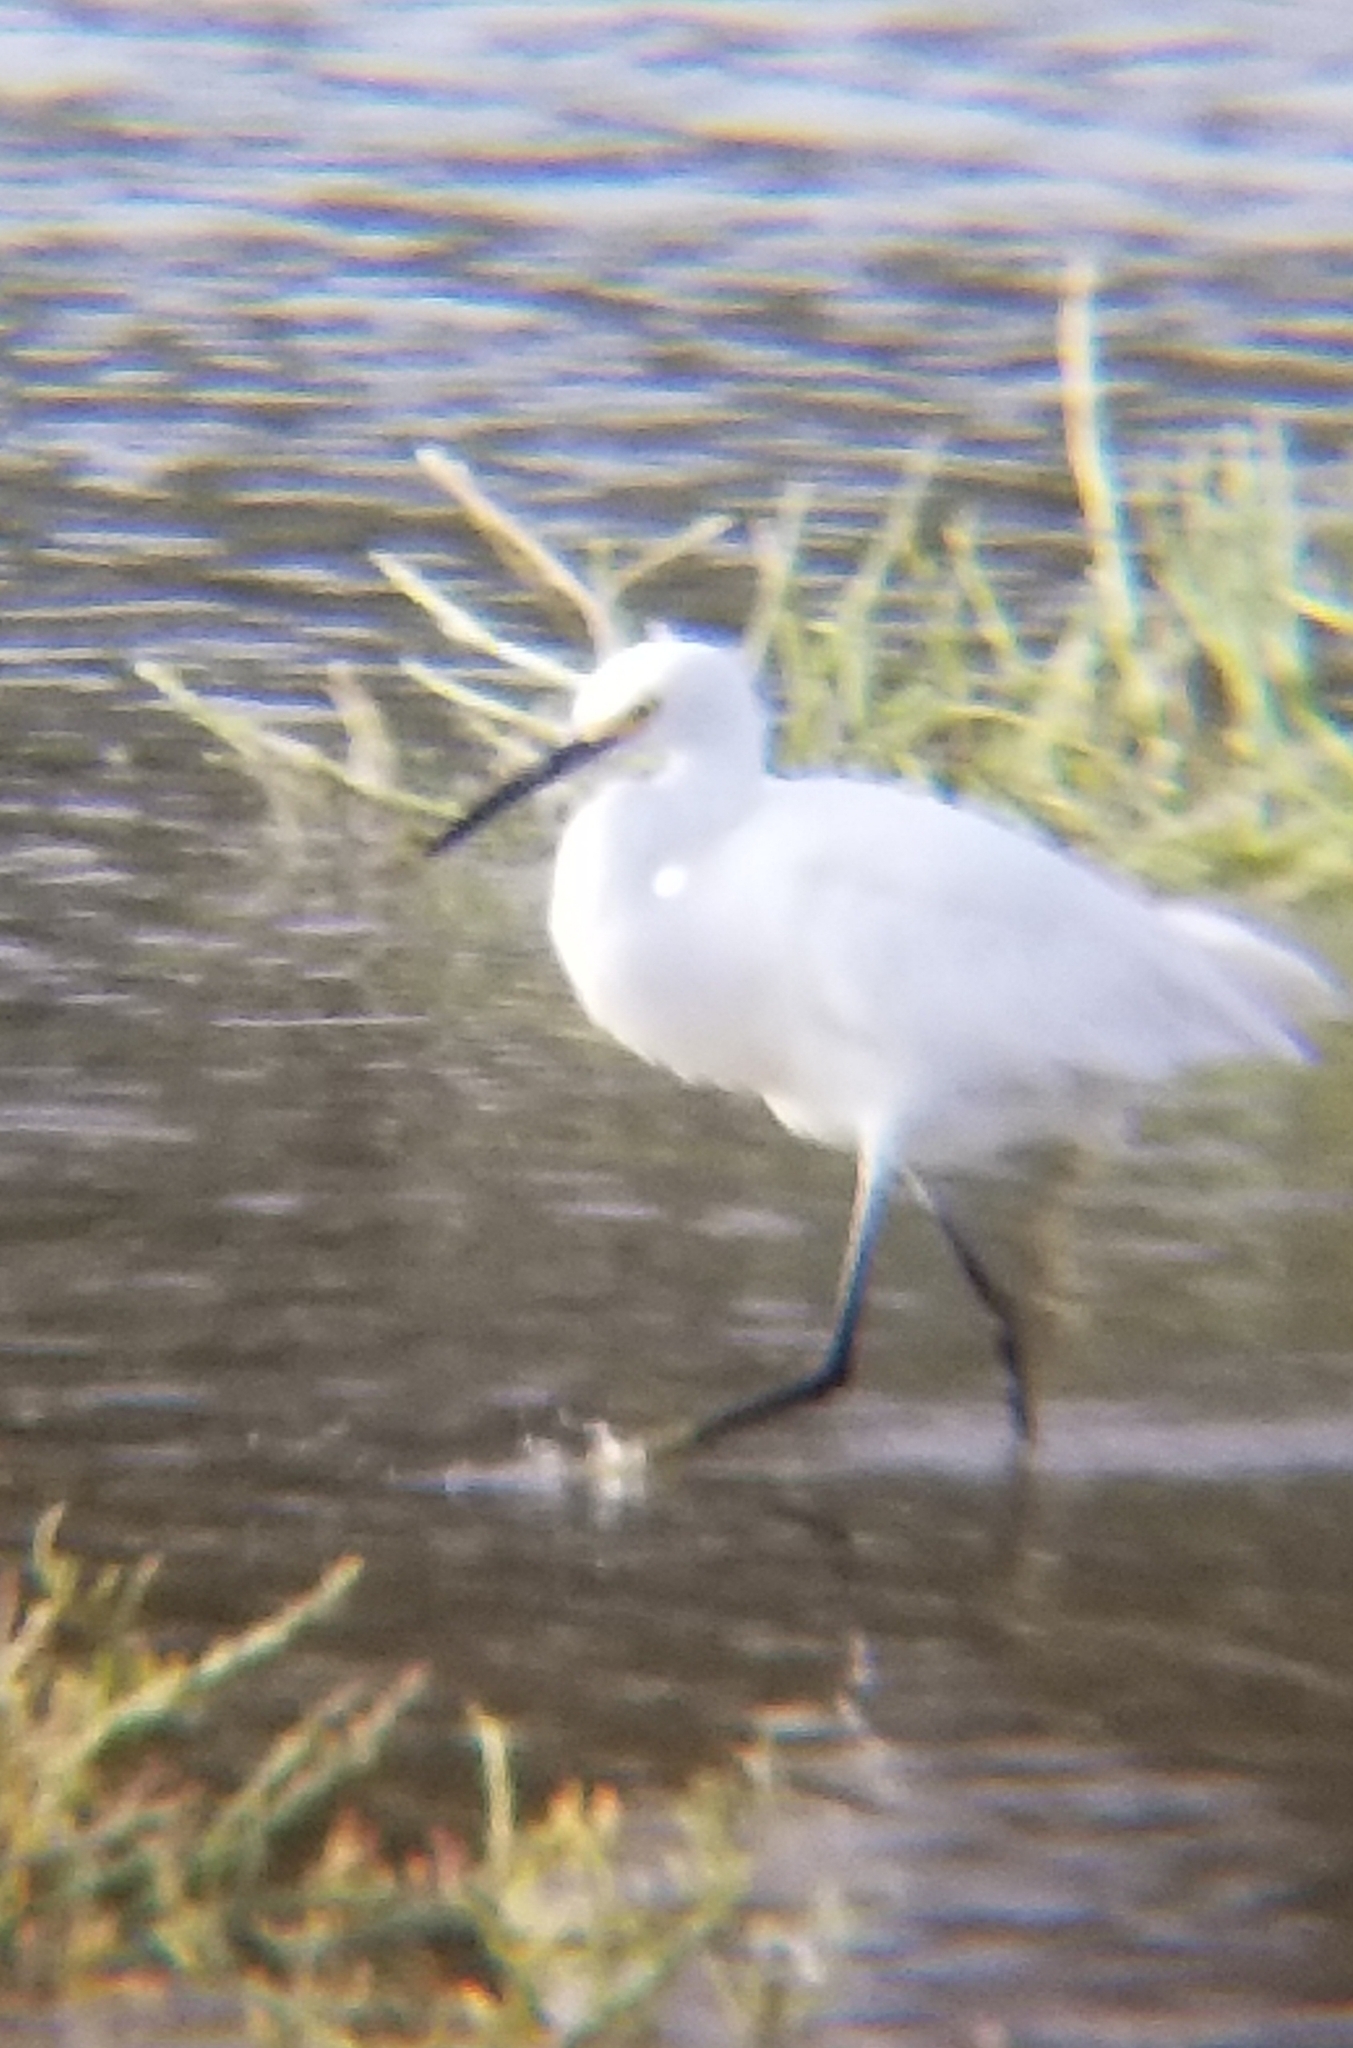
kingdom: Animalia
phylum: Chordata
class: Aves
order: Pelecaniformes
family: Ardeidae
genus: Egretta
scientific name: Egretta thula
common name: Snowy egret
